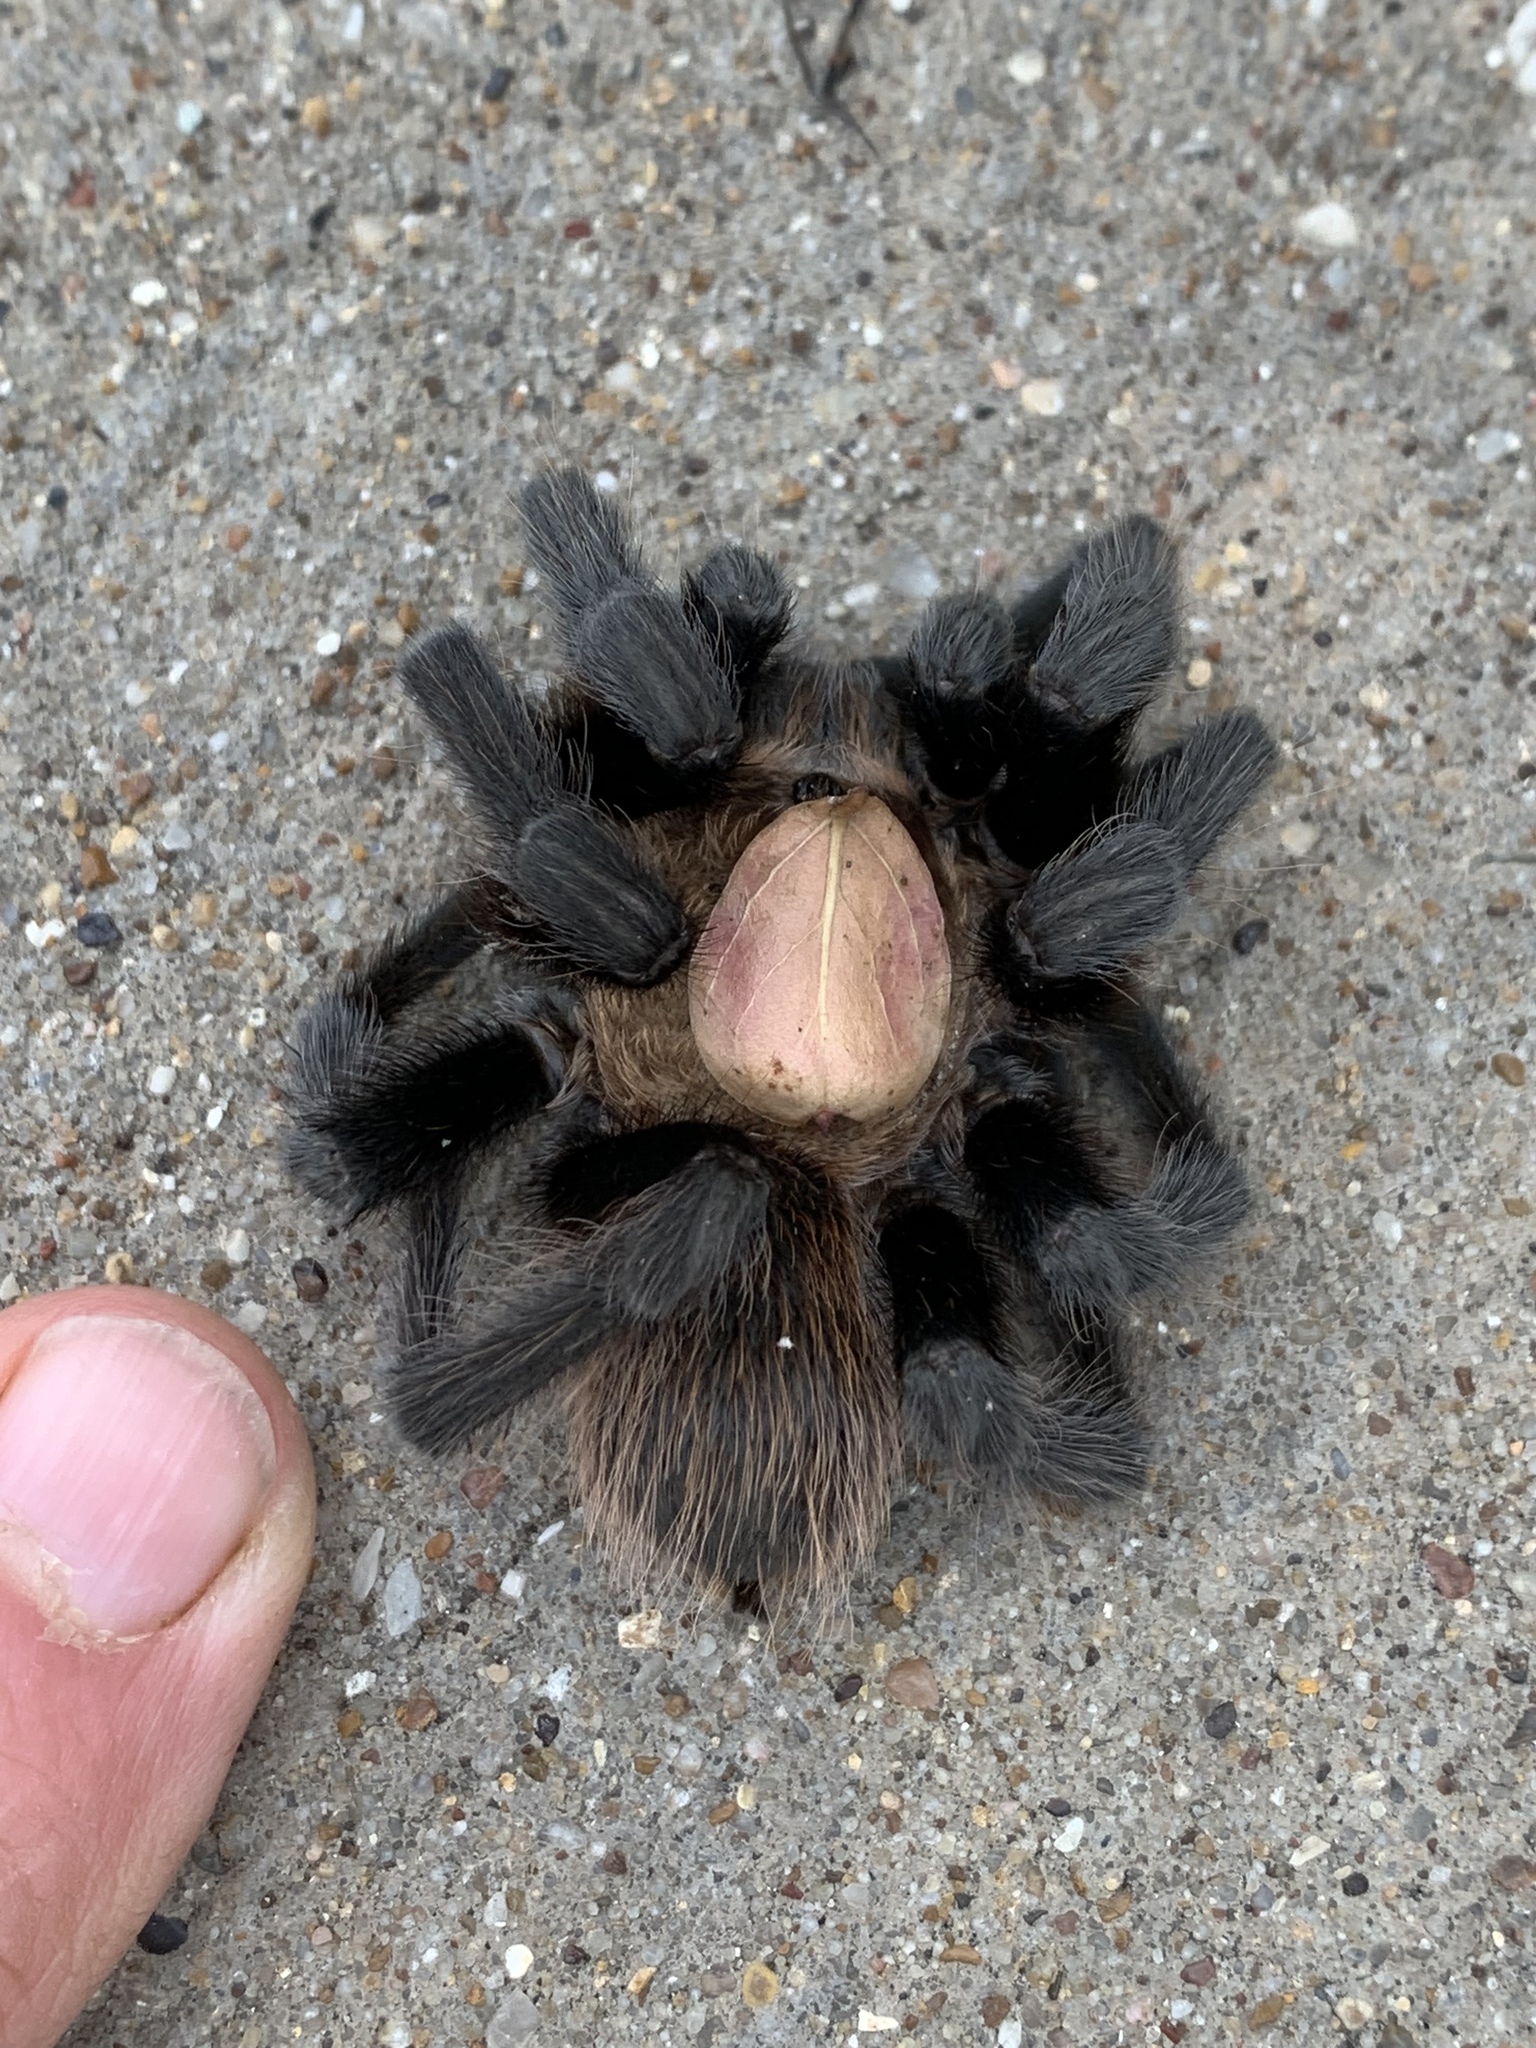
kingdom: Animalia
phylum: Arthropoda
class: Arachnida
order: Araneae
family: Theraphosidae
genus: Aphonopelma
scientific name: Aphonopelma hentzi
